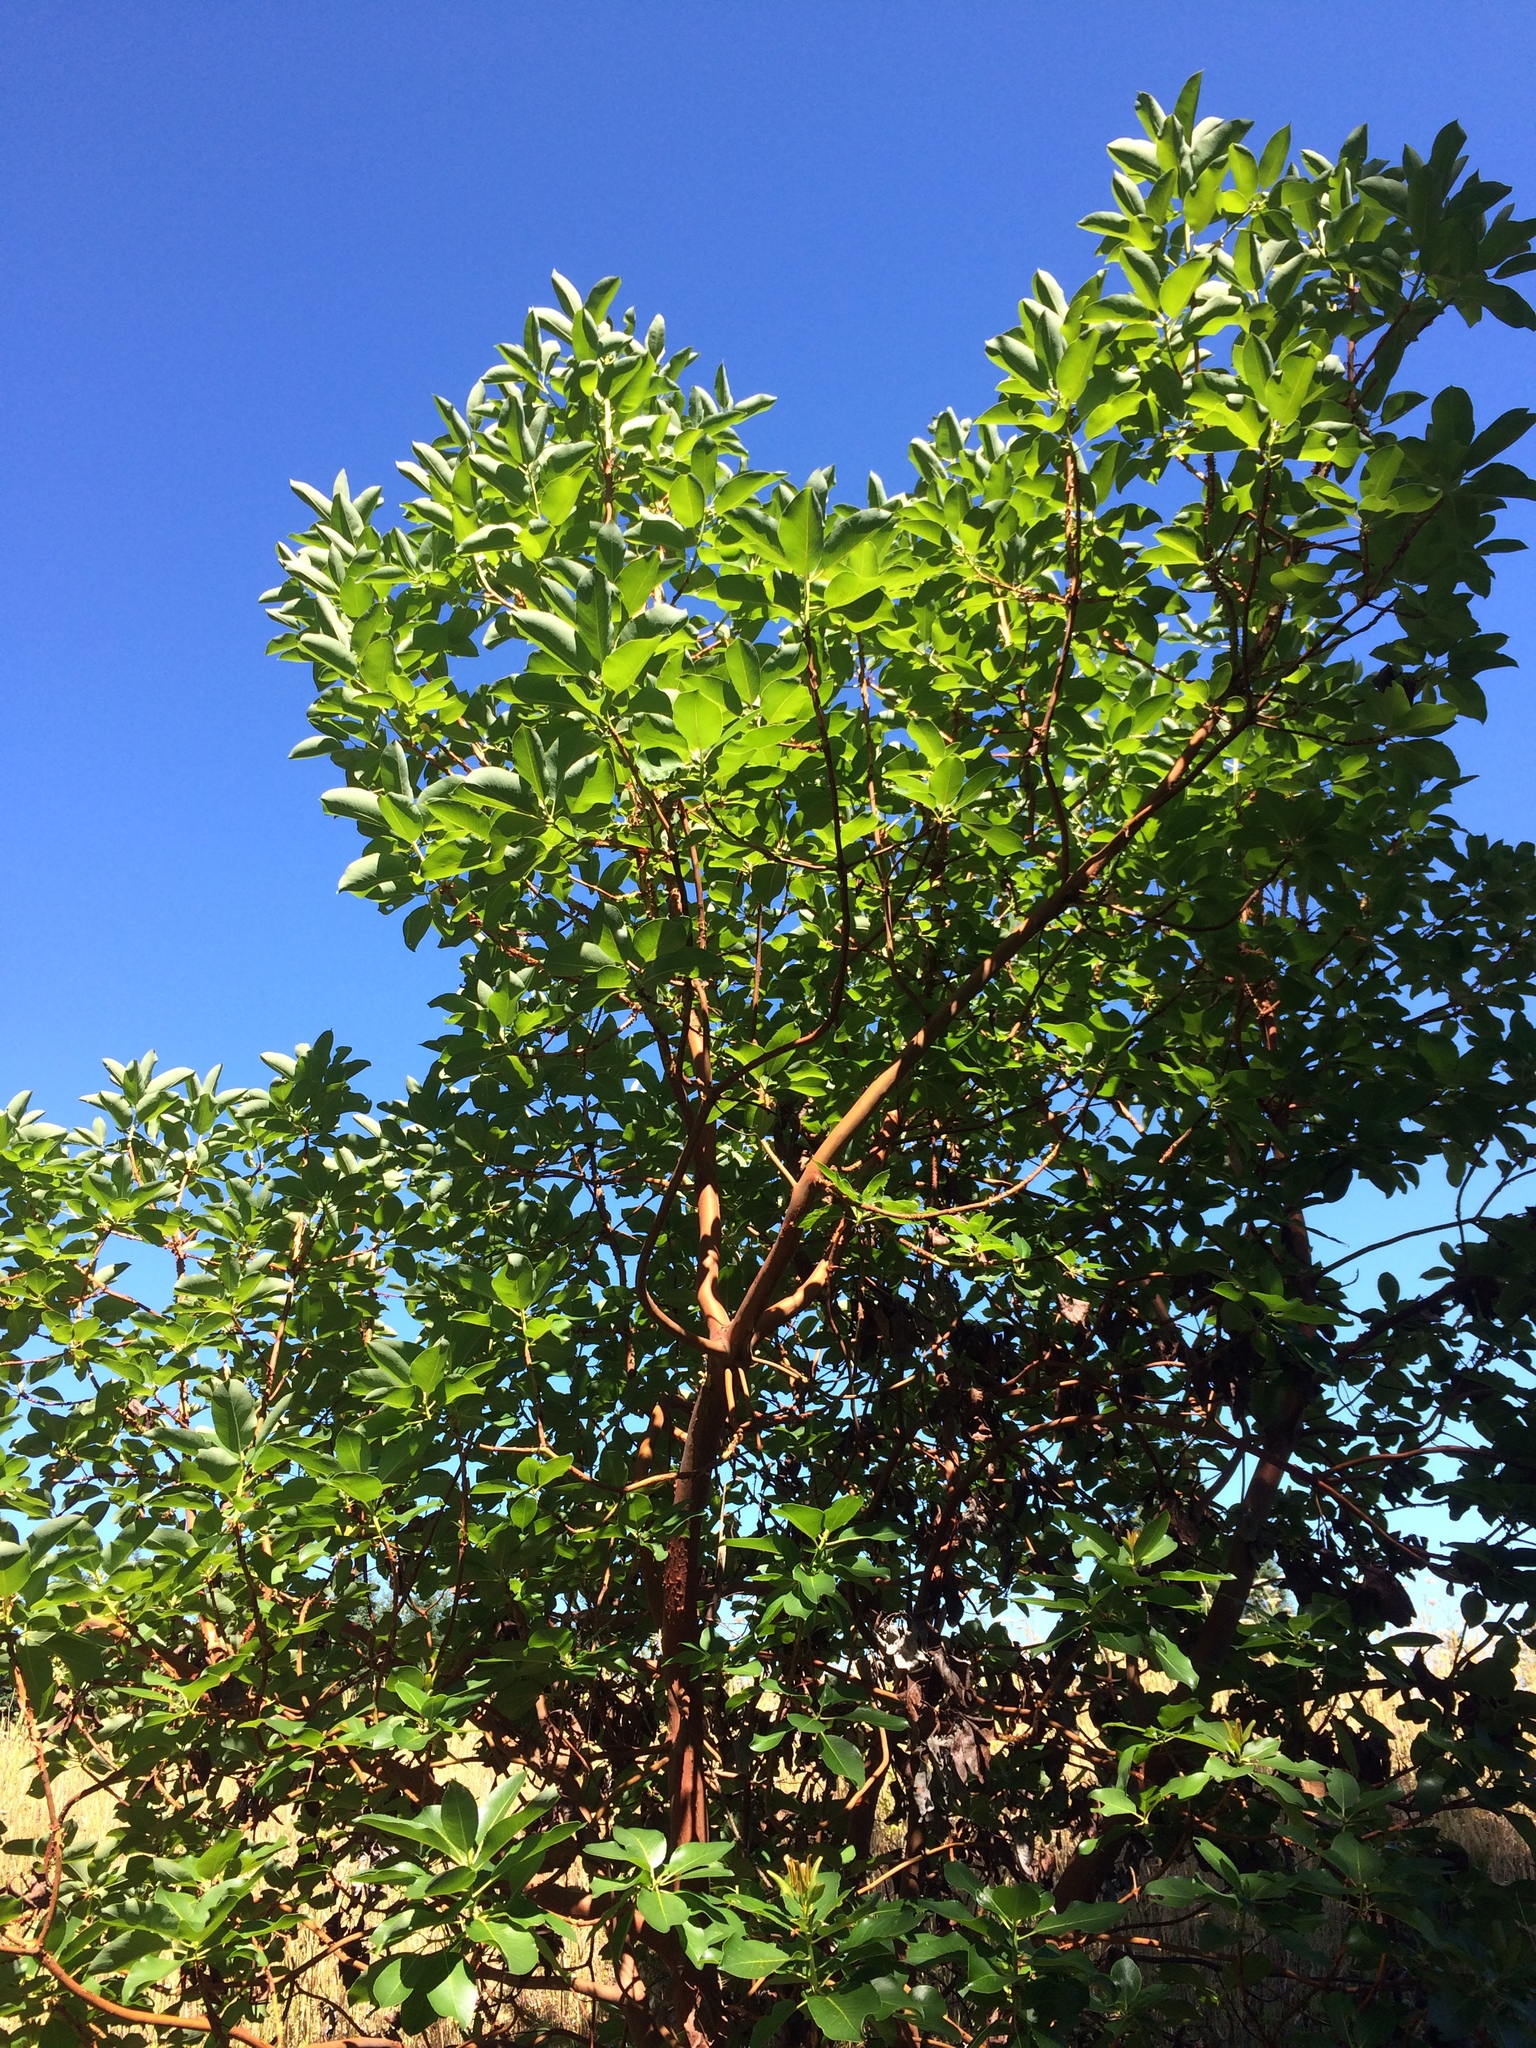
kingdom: Plantae
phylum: Tracheophyta
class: Magnoliopsida
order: Ericales
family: Ericaceae
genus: Arbutus
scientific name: Arbutus menziesii
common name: Pacific madrone
